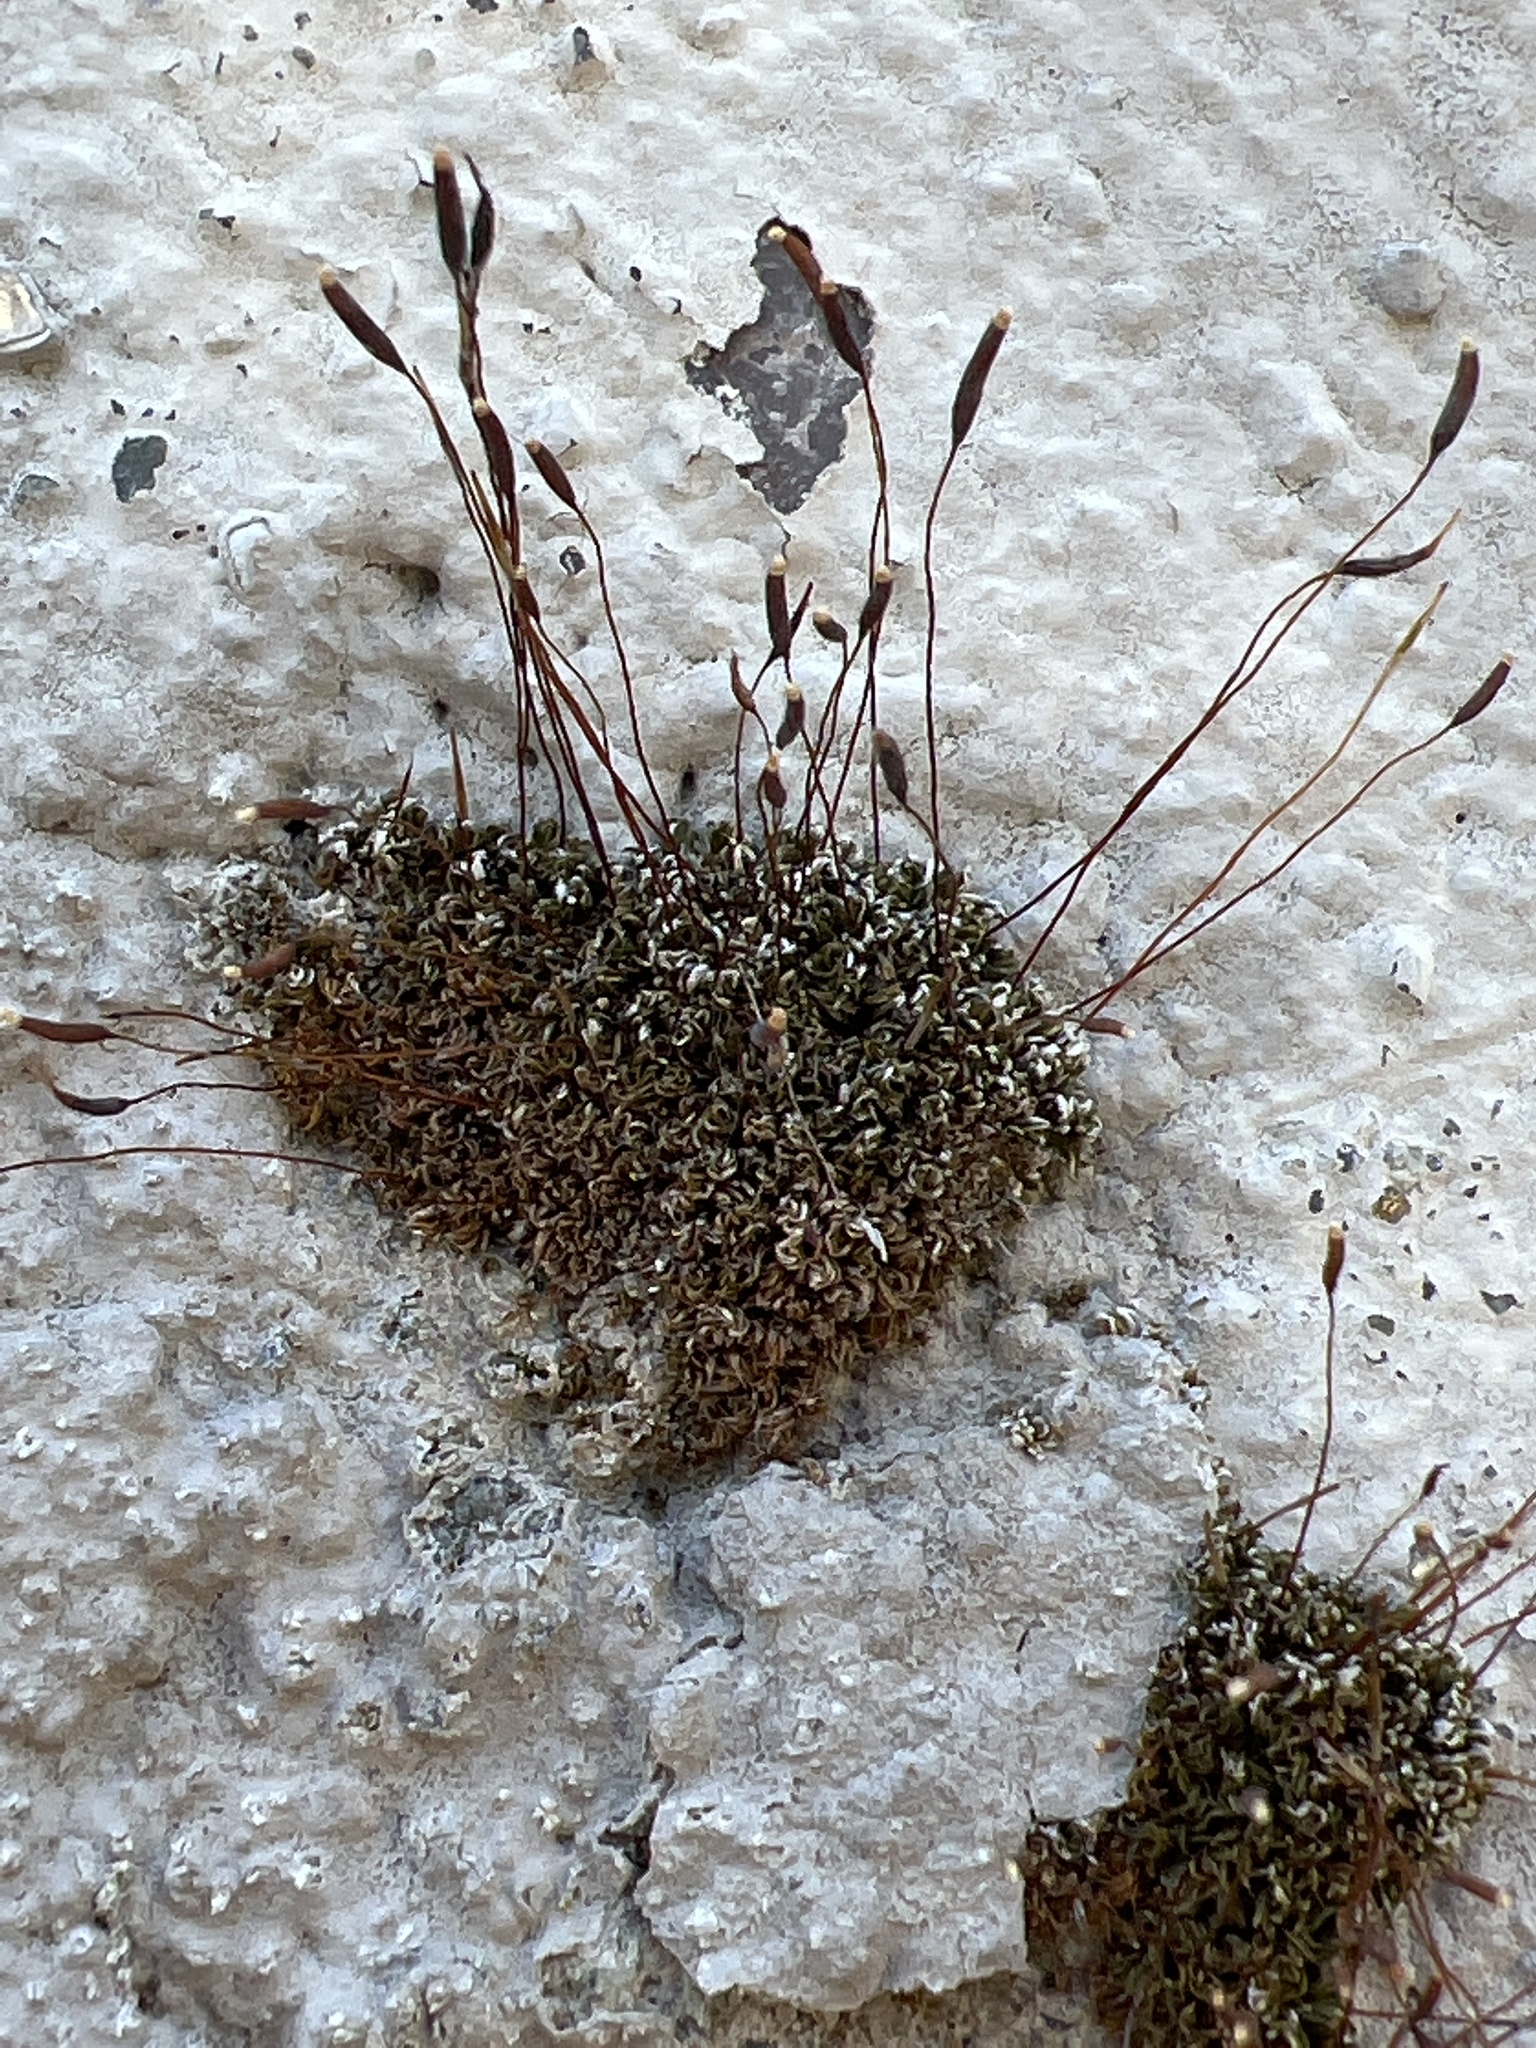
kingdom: Plantae
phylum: Bryophyta
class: Bryopsida
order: Pottiales
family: Pottiaceae
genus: Tortula
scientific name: Tortula muralis
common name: Wall screw-moss
